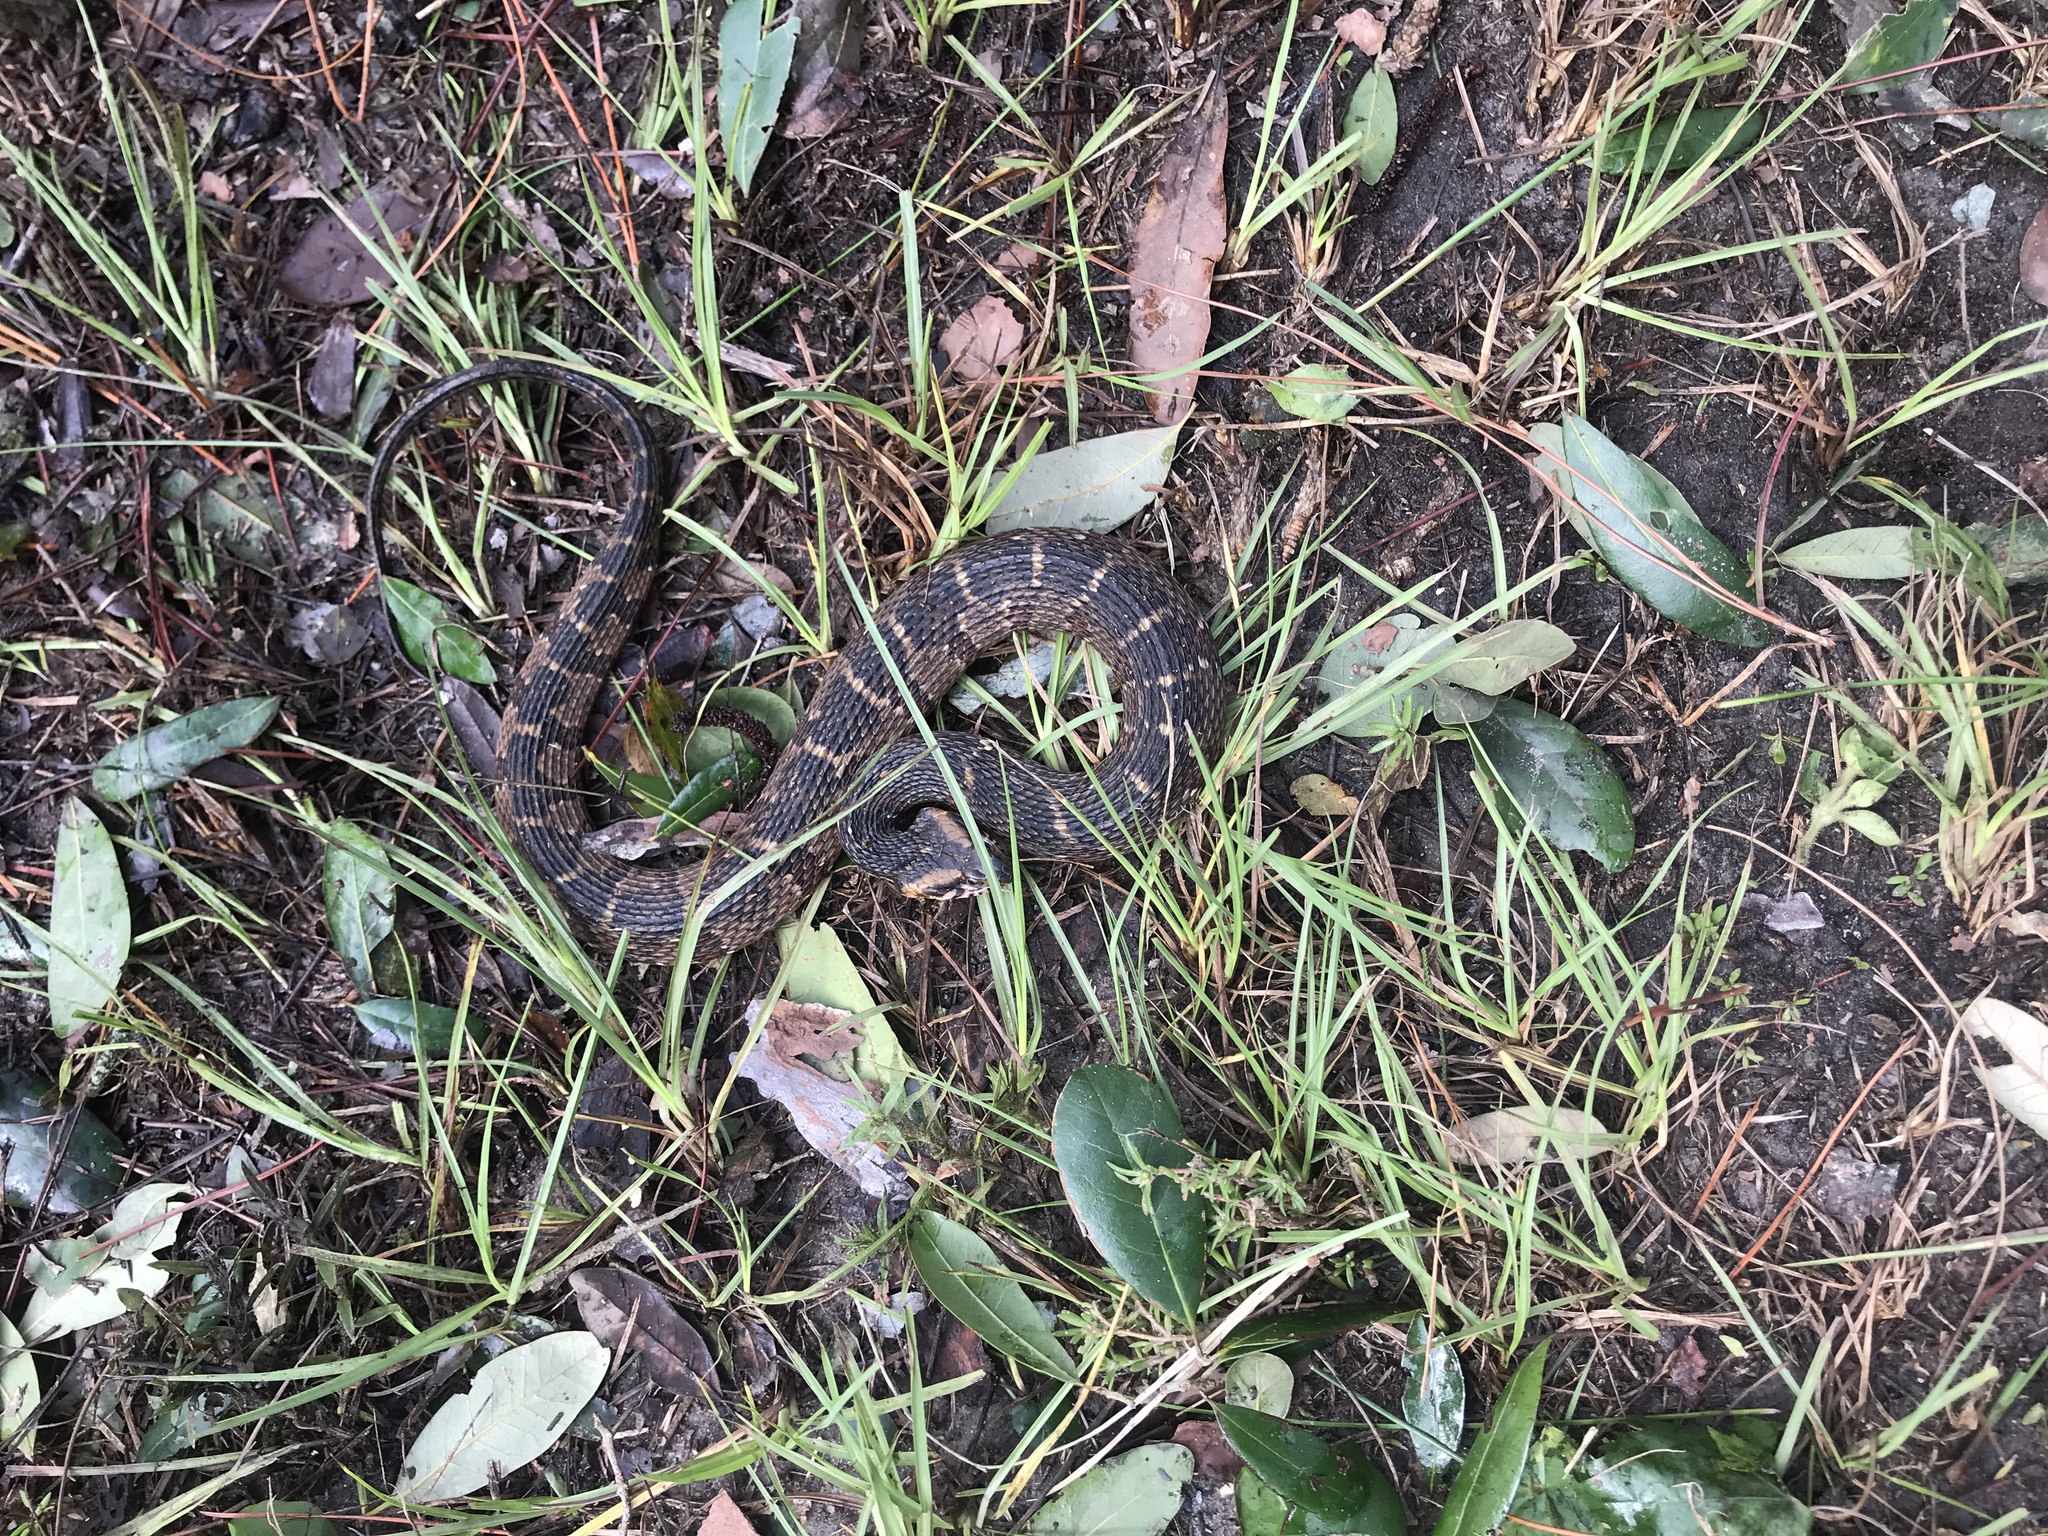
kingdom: Animalia
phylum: Chordata
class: Squamata
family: Colubridae
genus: Nerodia
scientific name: Nerodia fasciata
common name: Southern water snake
